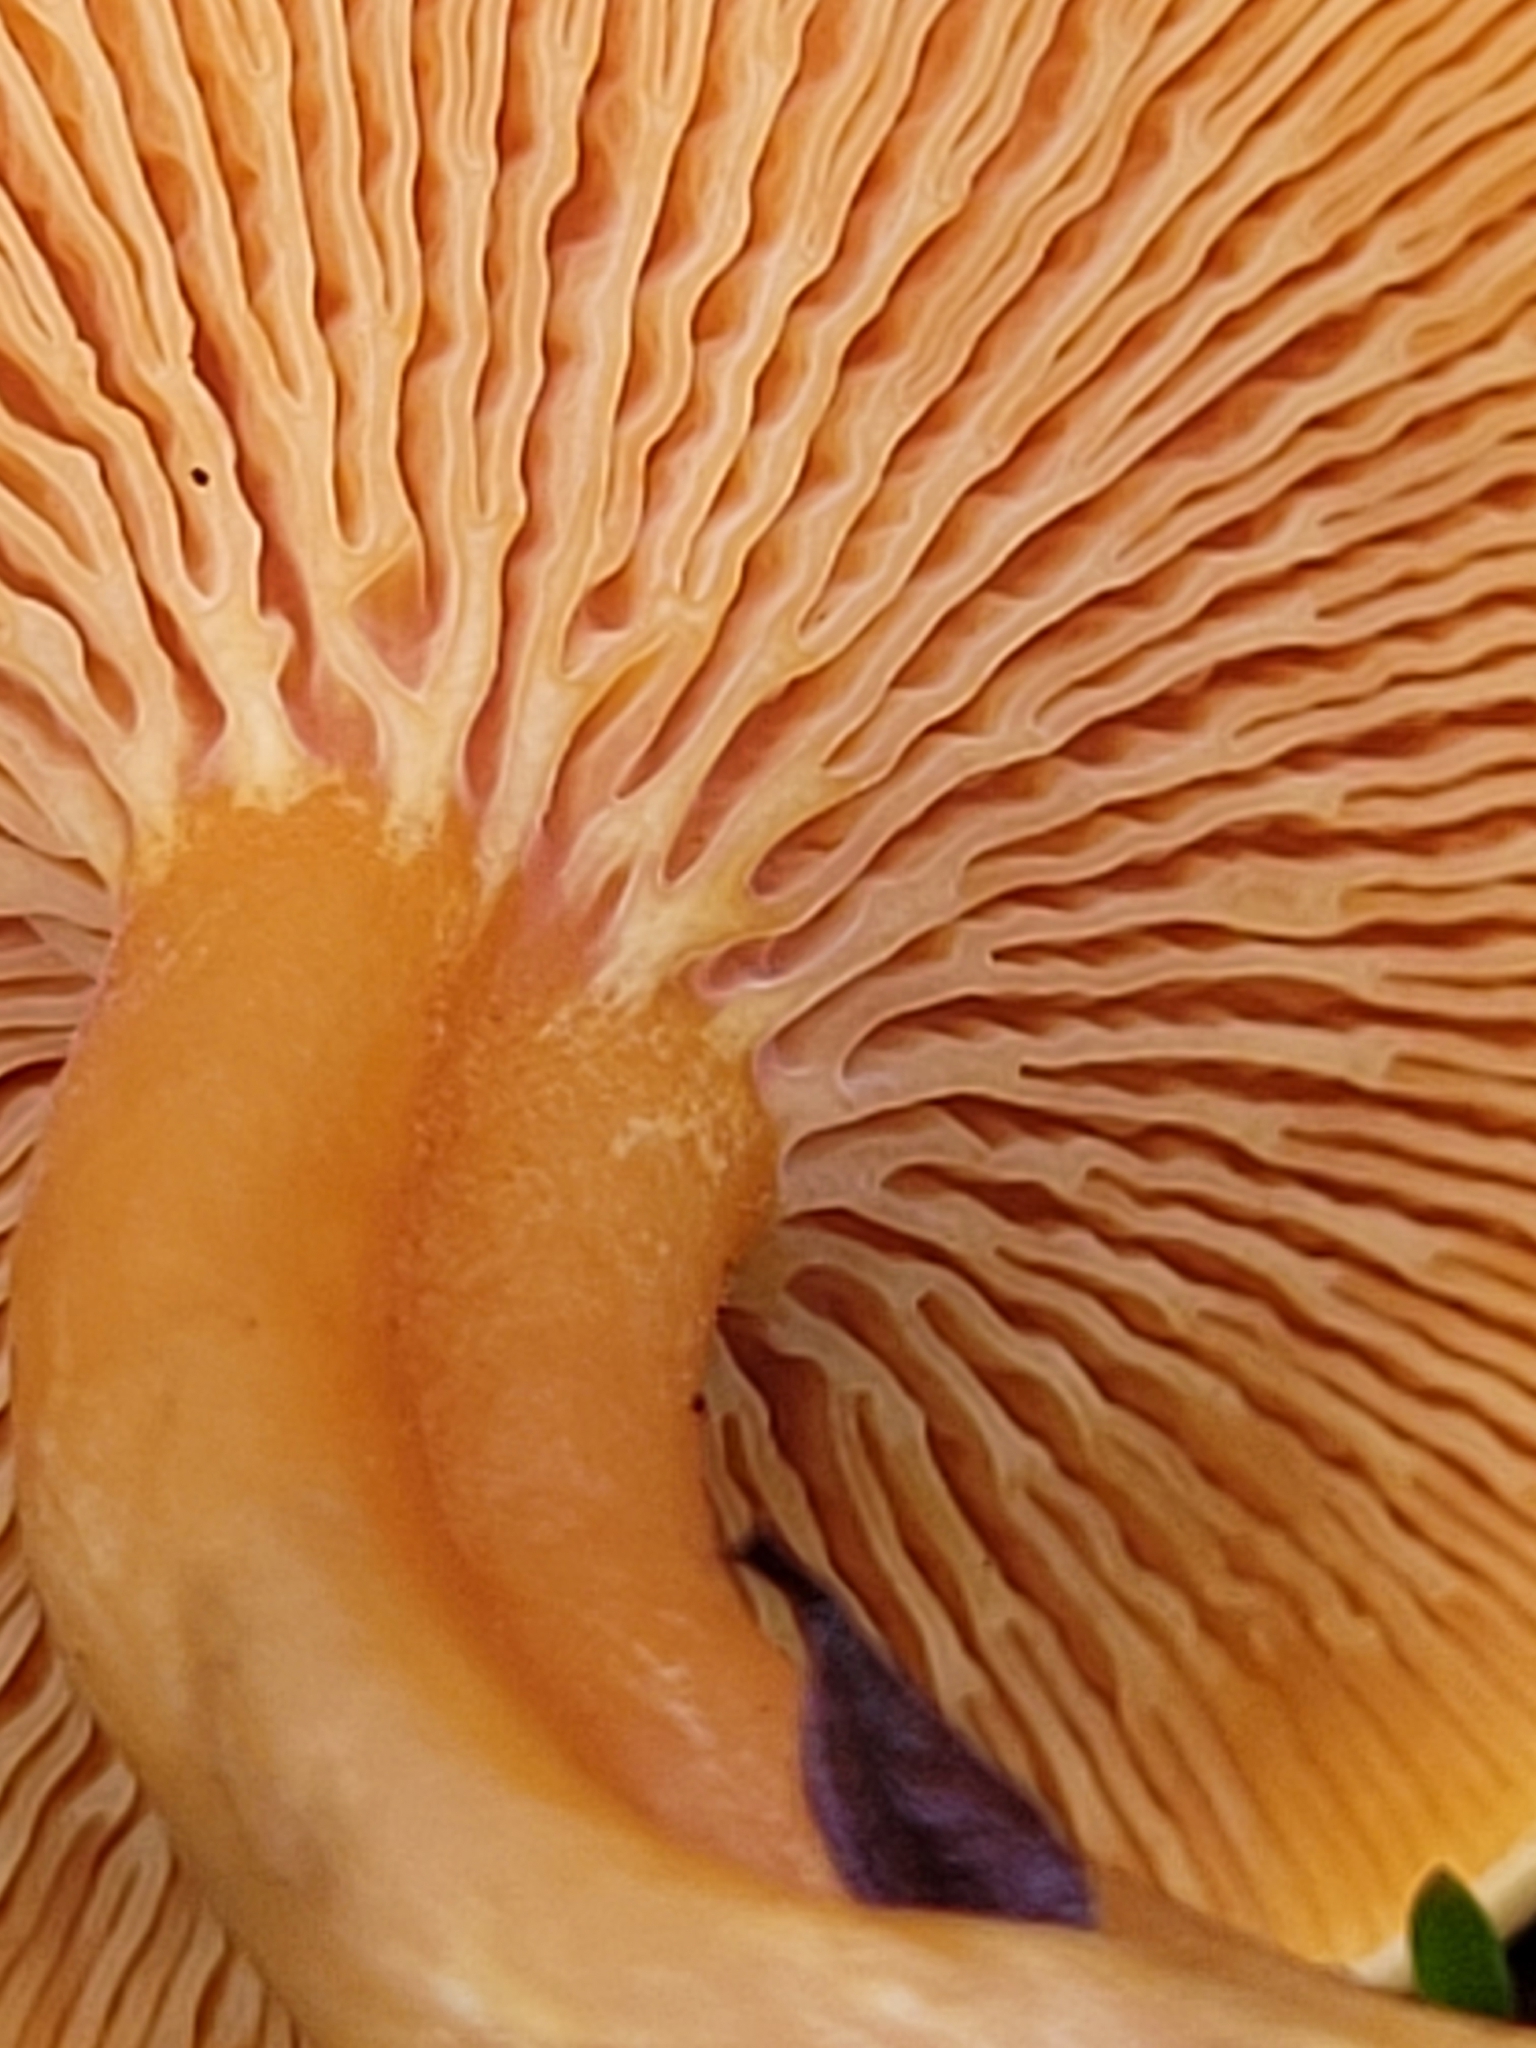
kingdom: Fungi
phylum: Basidiomycota
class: Agaricomycetes
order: Boletales
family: Hygrophoropsidaceae
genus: Hygrophoropsis
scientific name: Hygrophoropsis aurantiaca
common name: False chanterelle
